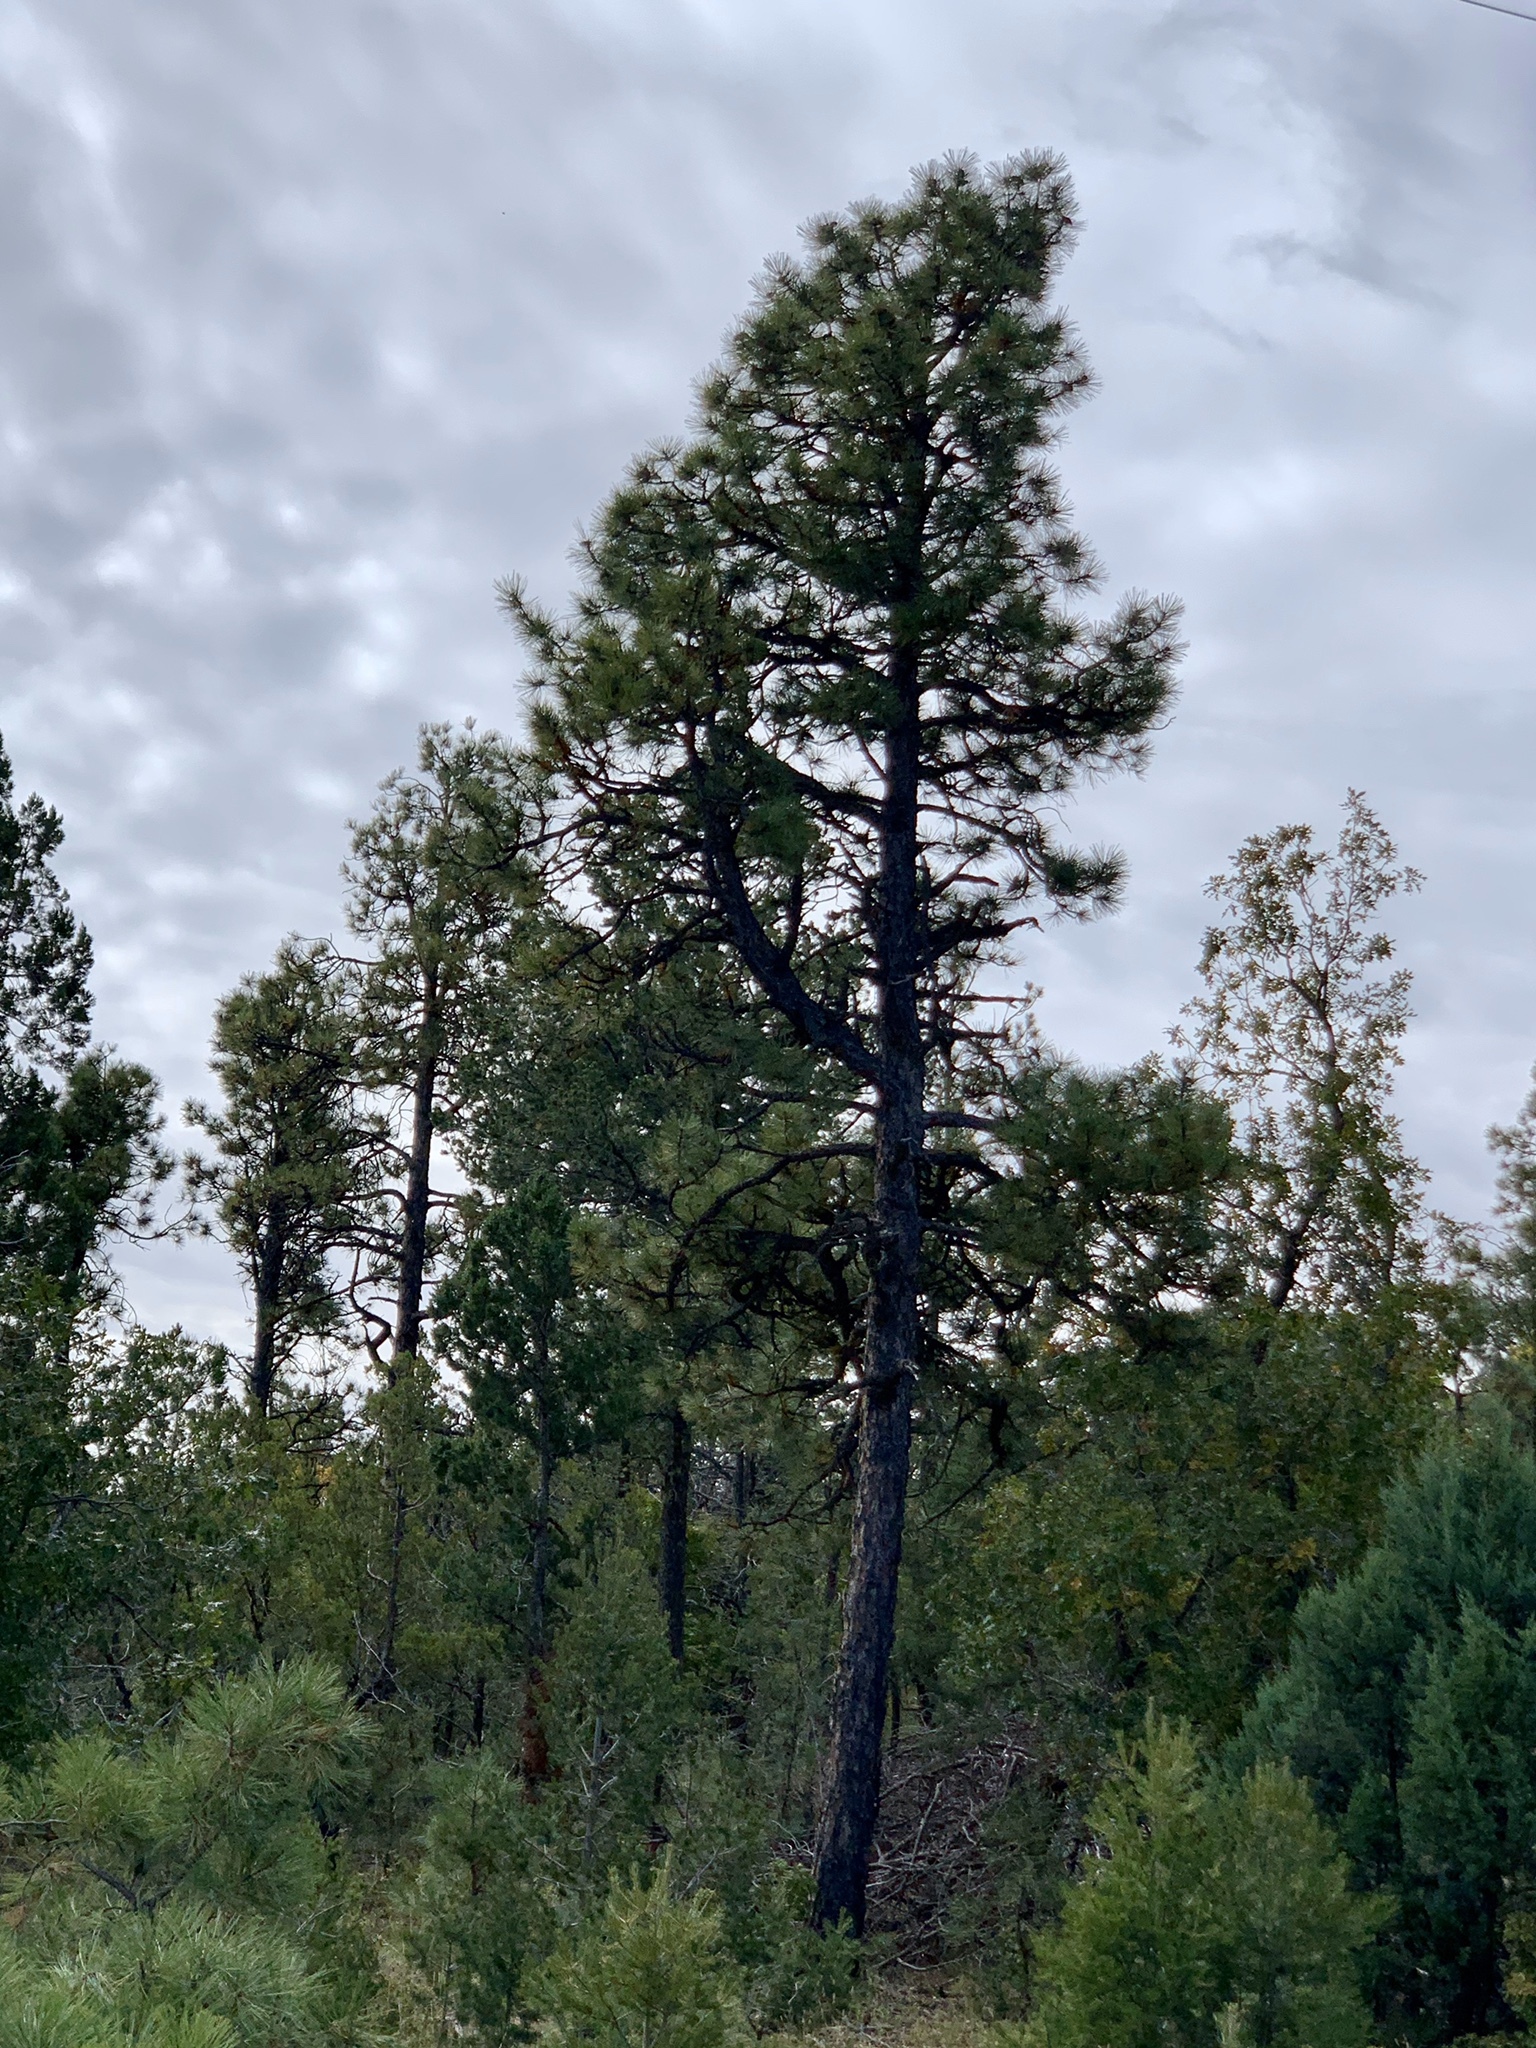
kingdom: Plantae
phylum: Tracheophyta
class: Pinopsida
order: Pinales
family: Pinaceae
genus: Pinus
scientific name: Pinus ponderosa
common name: Western yellow-pine
